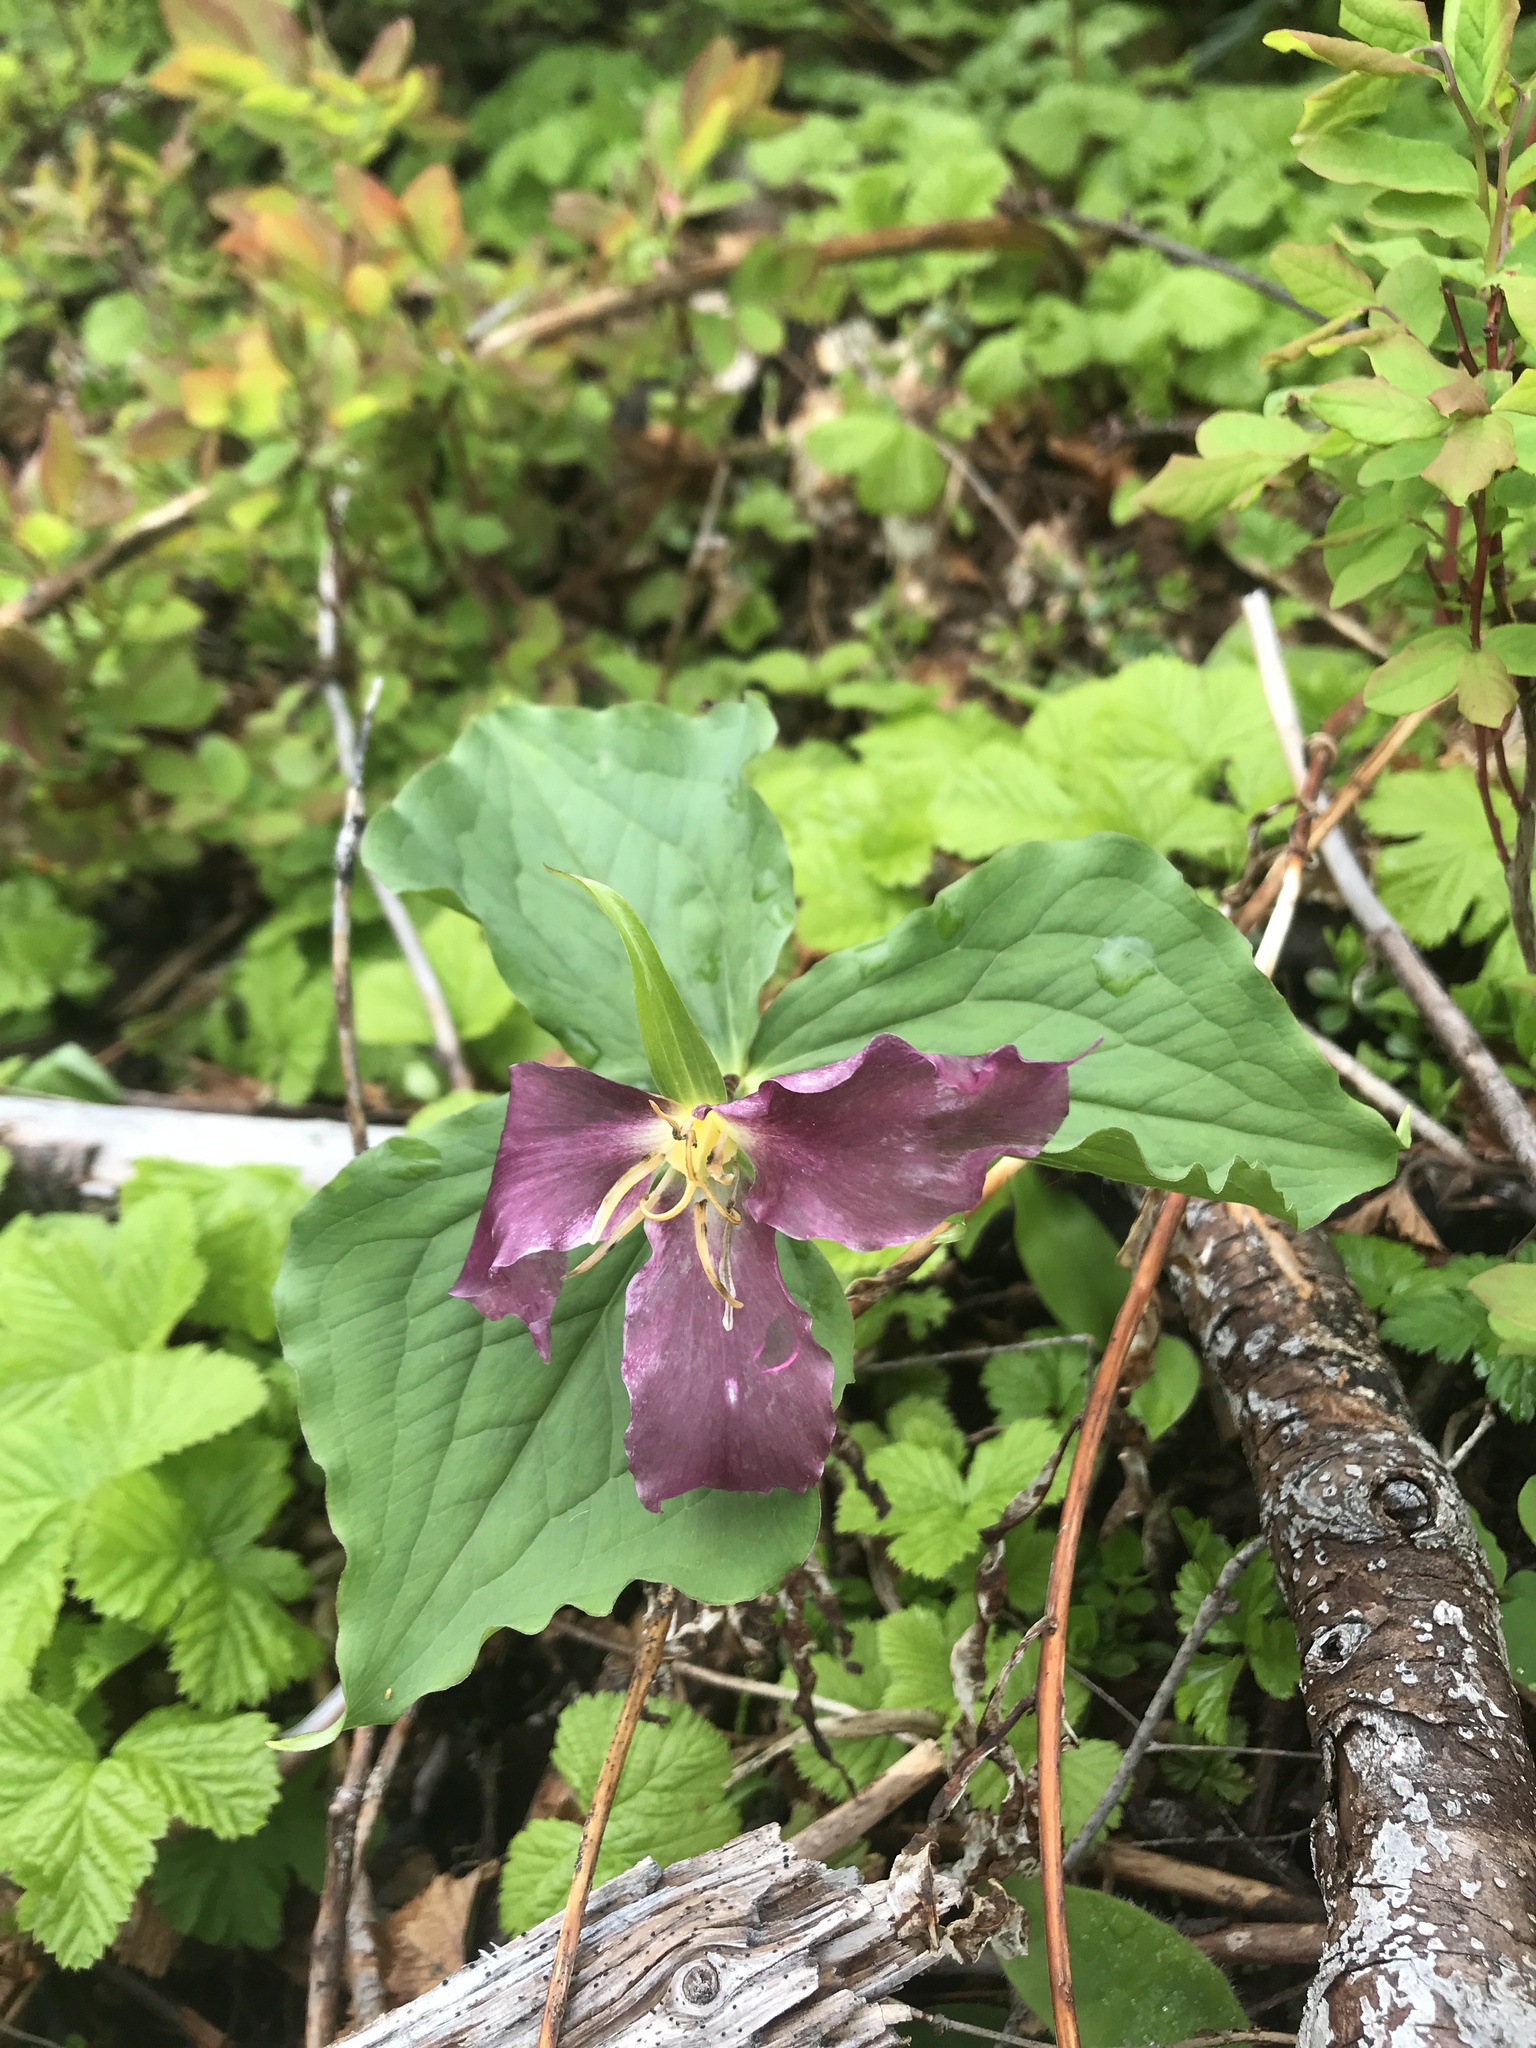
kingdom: Plantae
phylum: Tracheophyta
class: Liliopsida
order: Liliales
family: Melanthiaceae
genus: Trillium
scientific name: Trillium ovatum
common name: Pacific trillium
